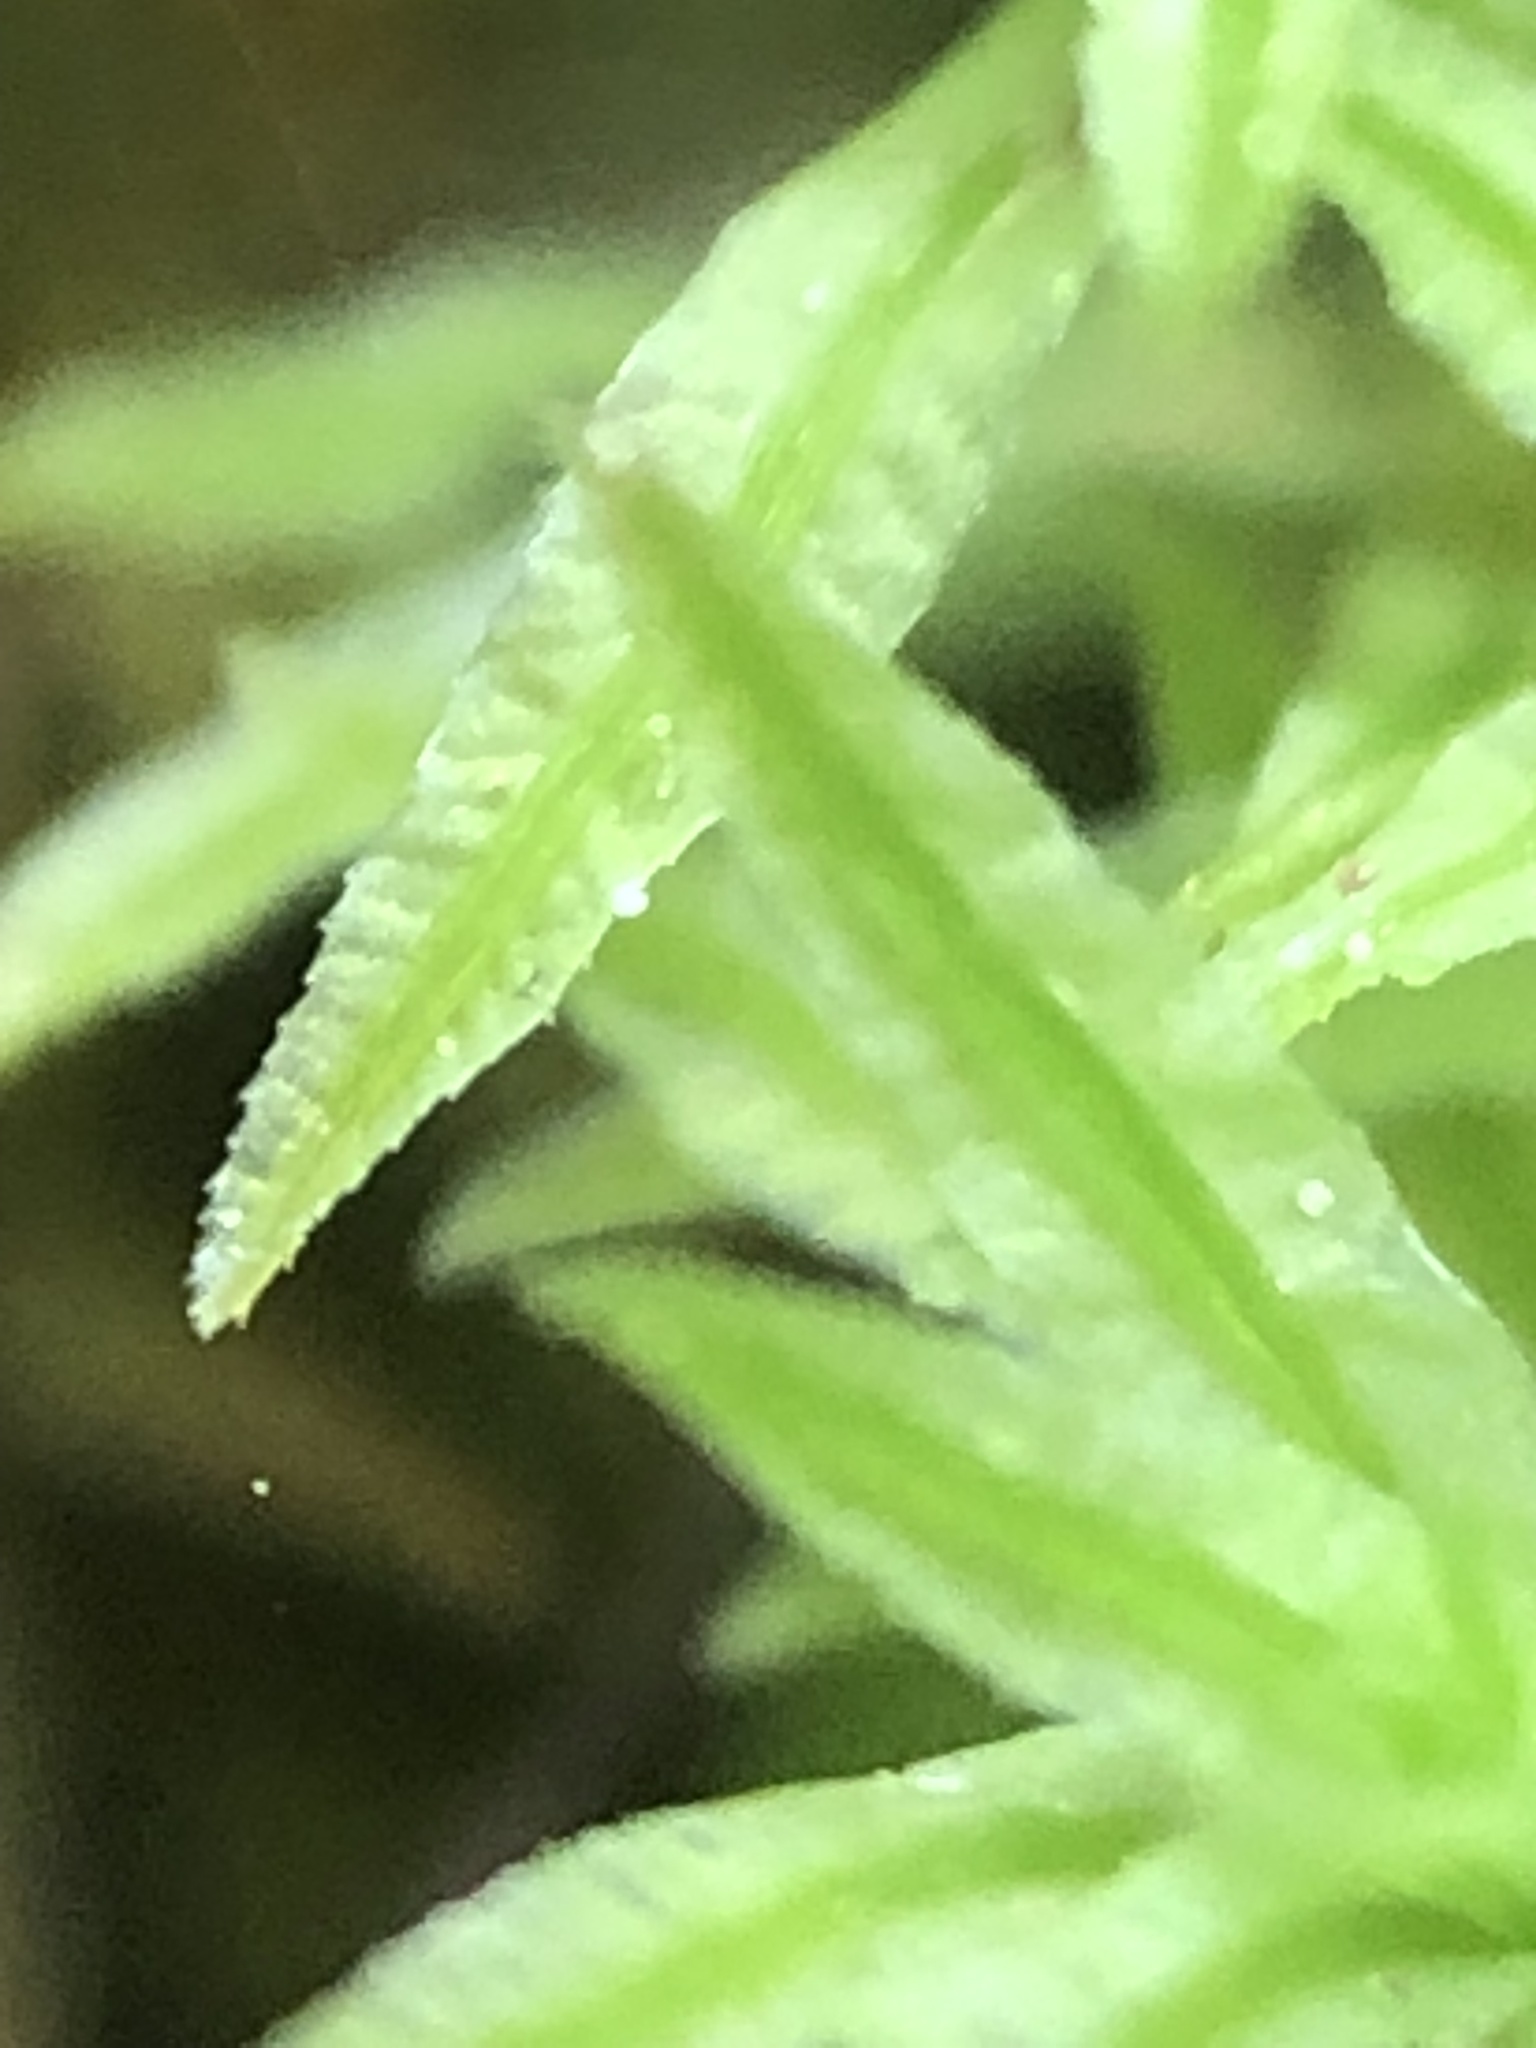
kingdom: Plantae
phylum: Bryophyta
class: Polytrichopsida
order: Polytrichales
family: Polytrichaceae
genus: Atrichum
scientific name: Atrichum angustatum
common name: Lesser smoothcap
